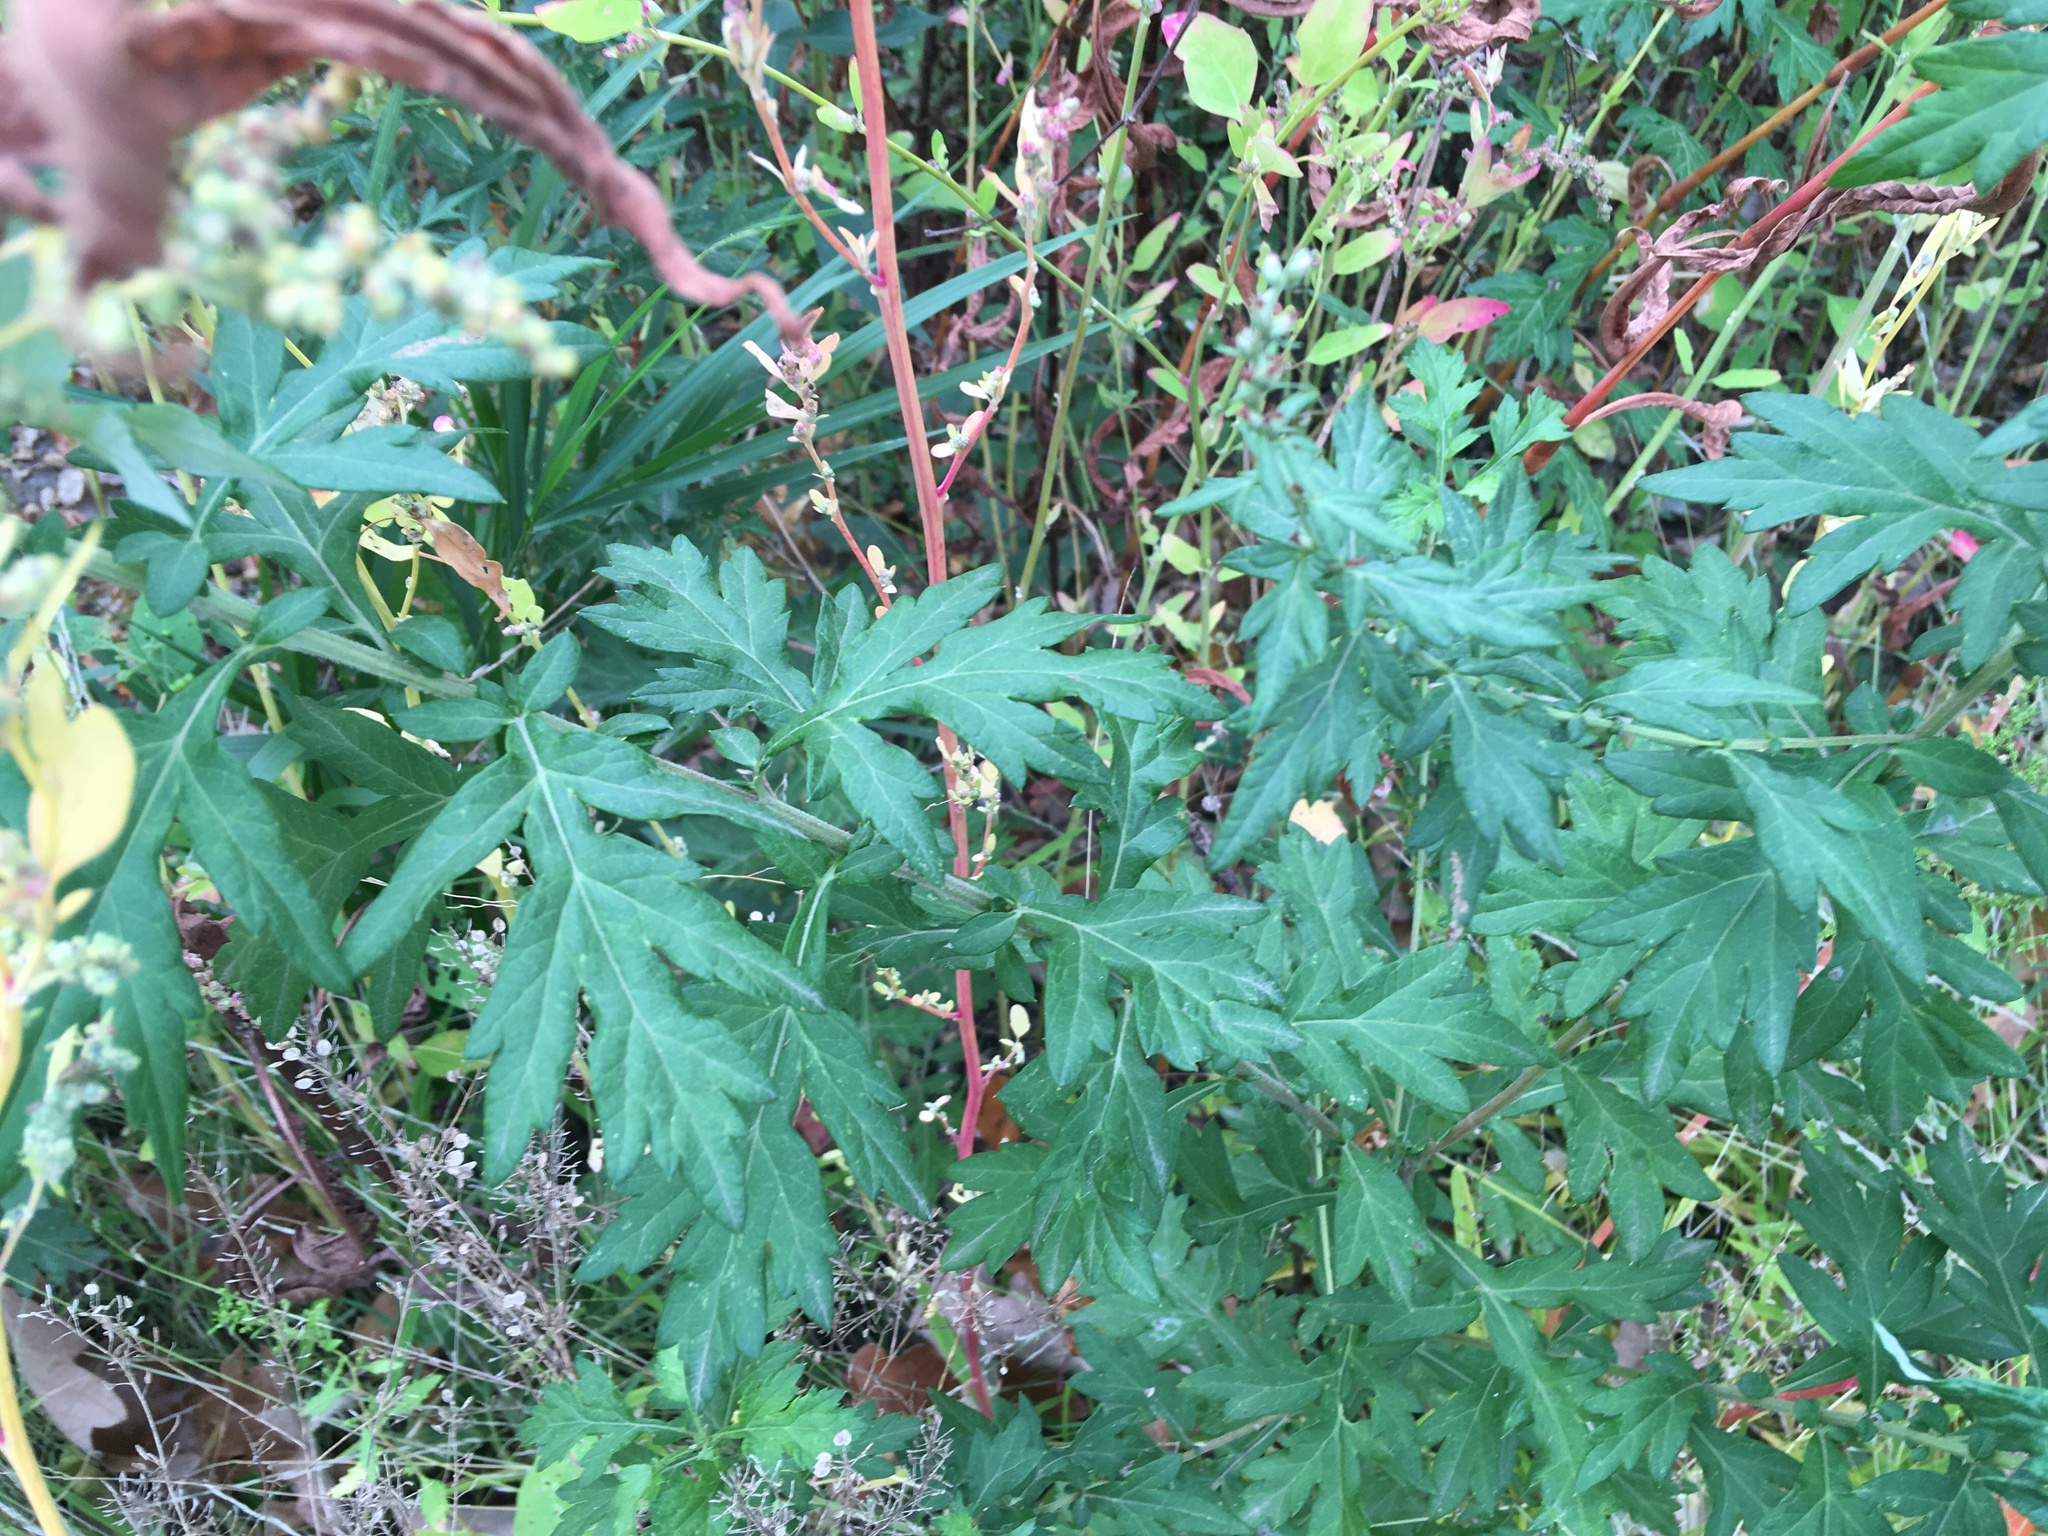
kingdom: Plantae
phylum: Tracheophyta
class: Magnoliopsida
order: Asterales
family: Asteraceae
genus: Artemisia
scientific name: Artemisia vulgaris
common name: Mugwort
